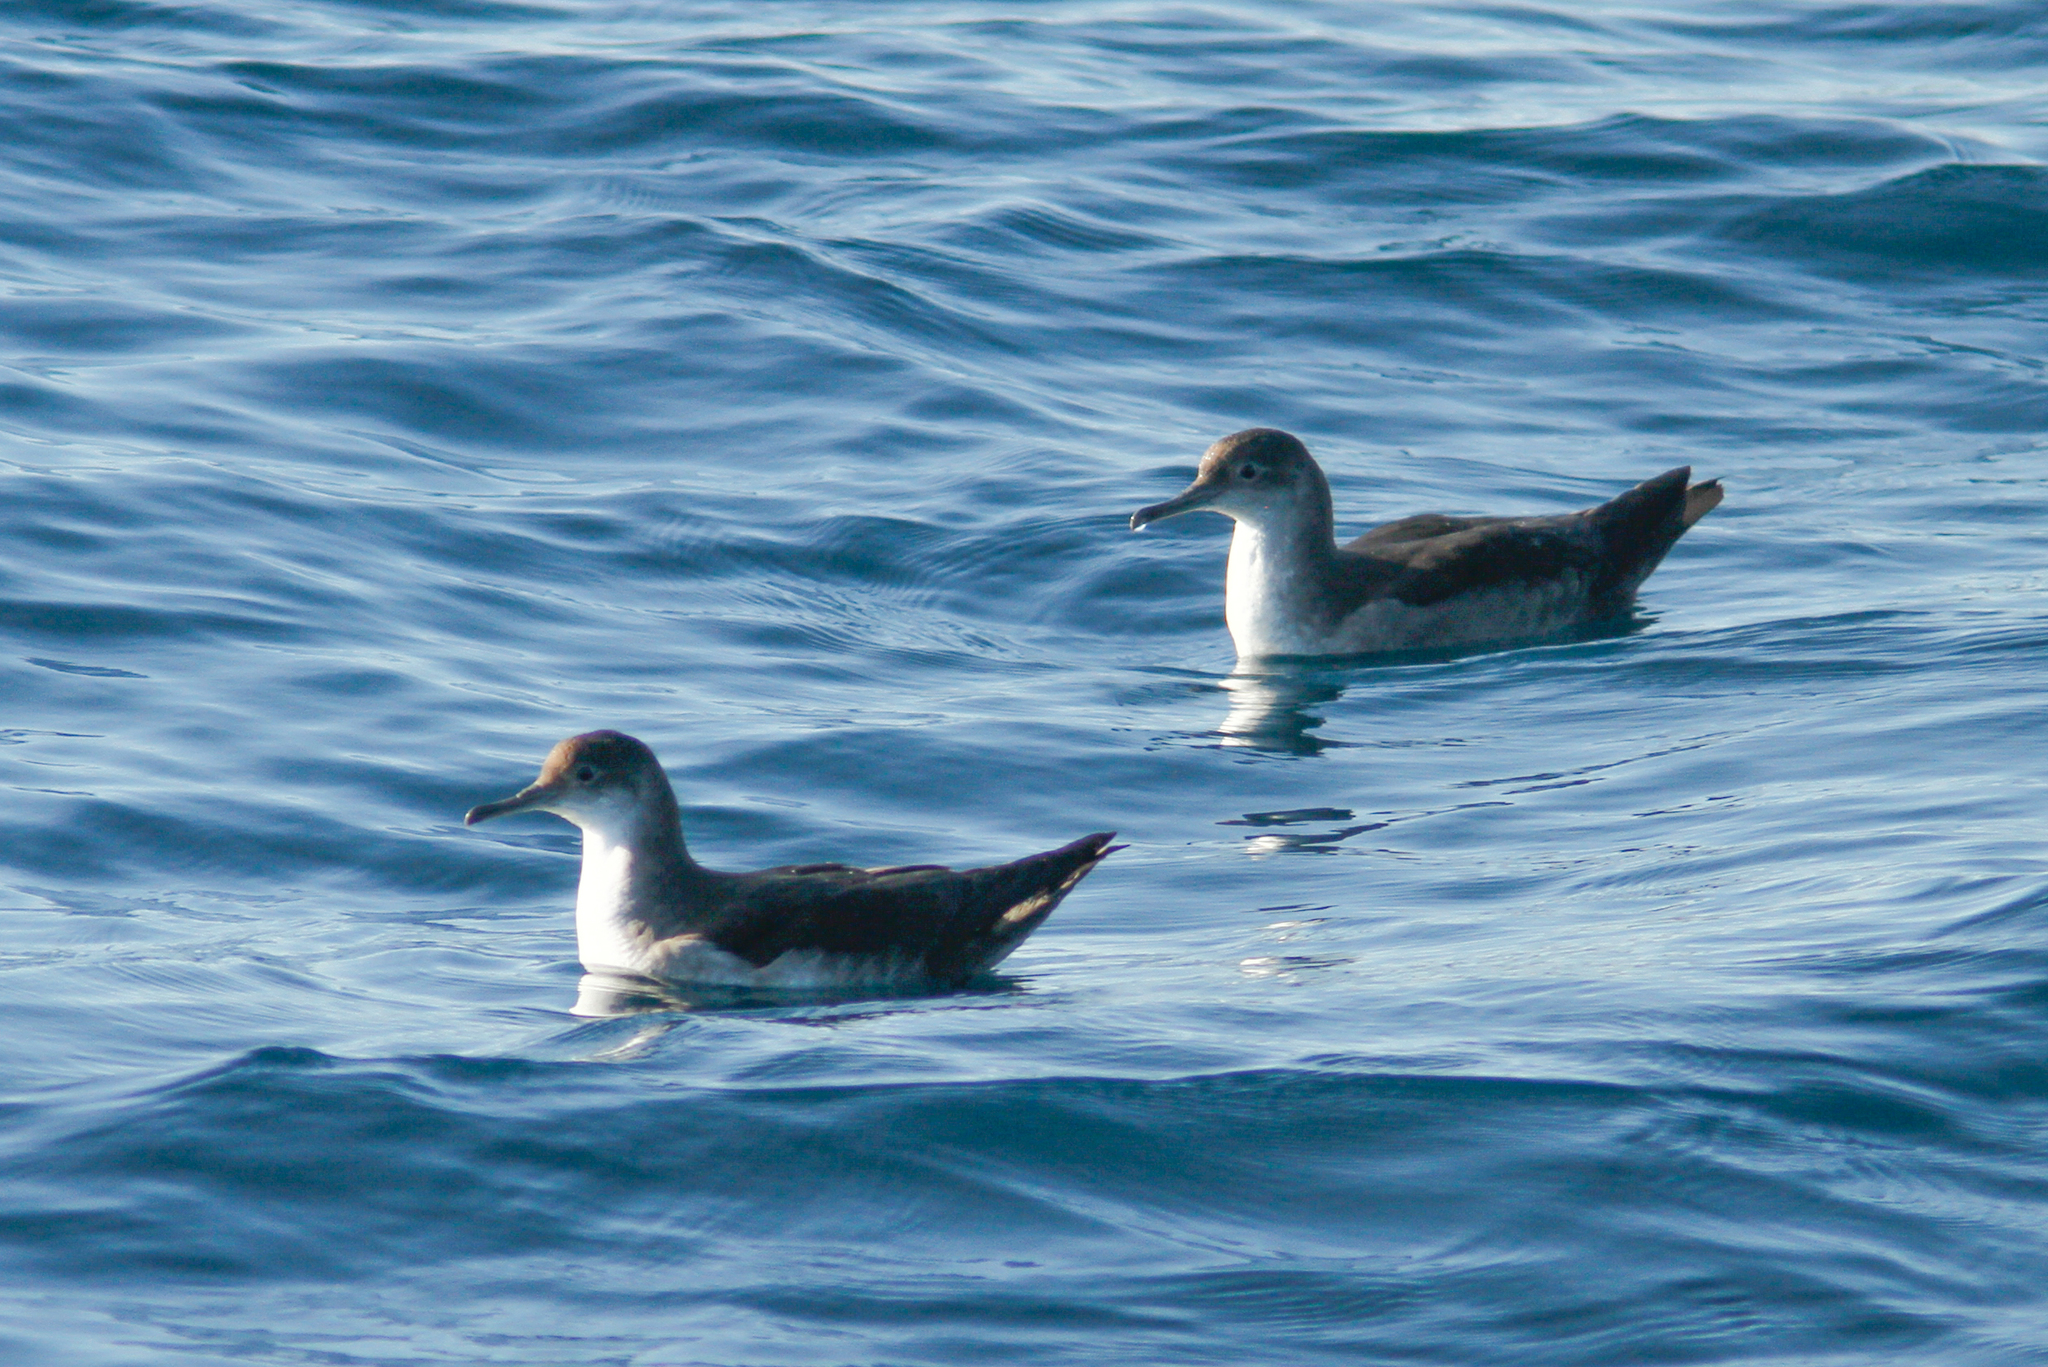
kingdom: Animalia
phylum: Chordata
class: Aves
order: Procellariiformes
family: Procellariidae
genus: Puffinus
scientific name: Puffinus mauretanicus
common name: Balearic shearwater
